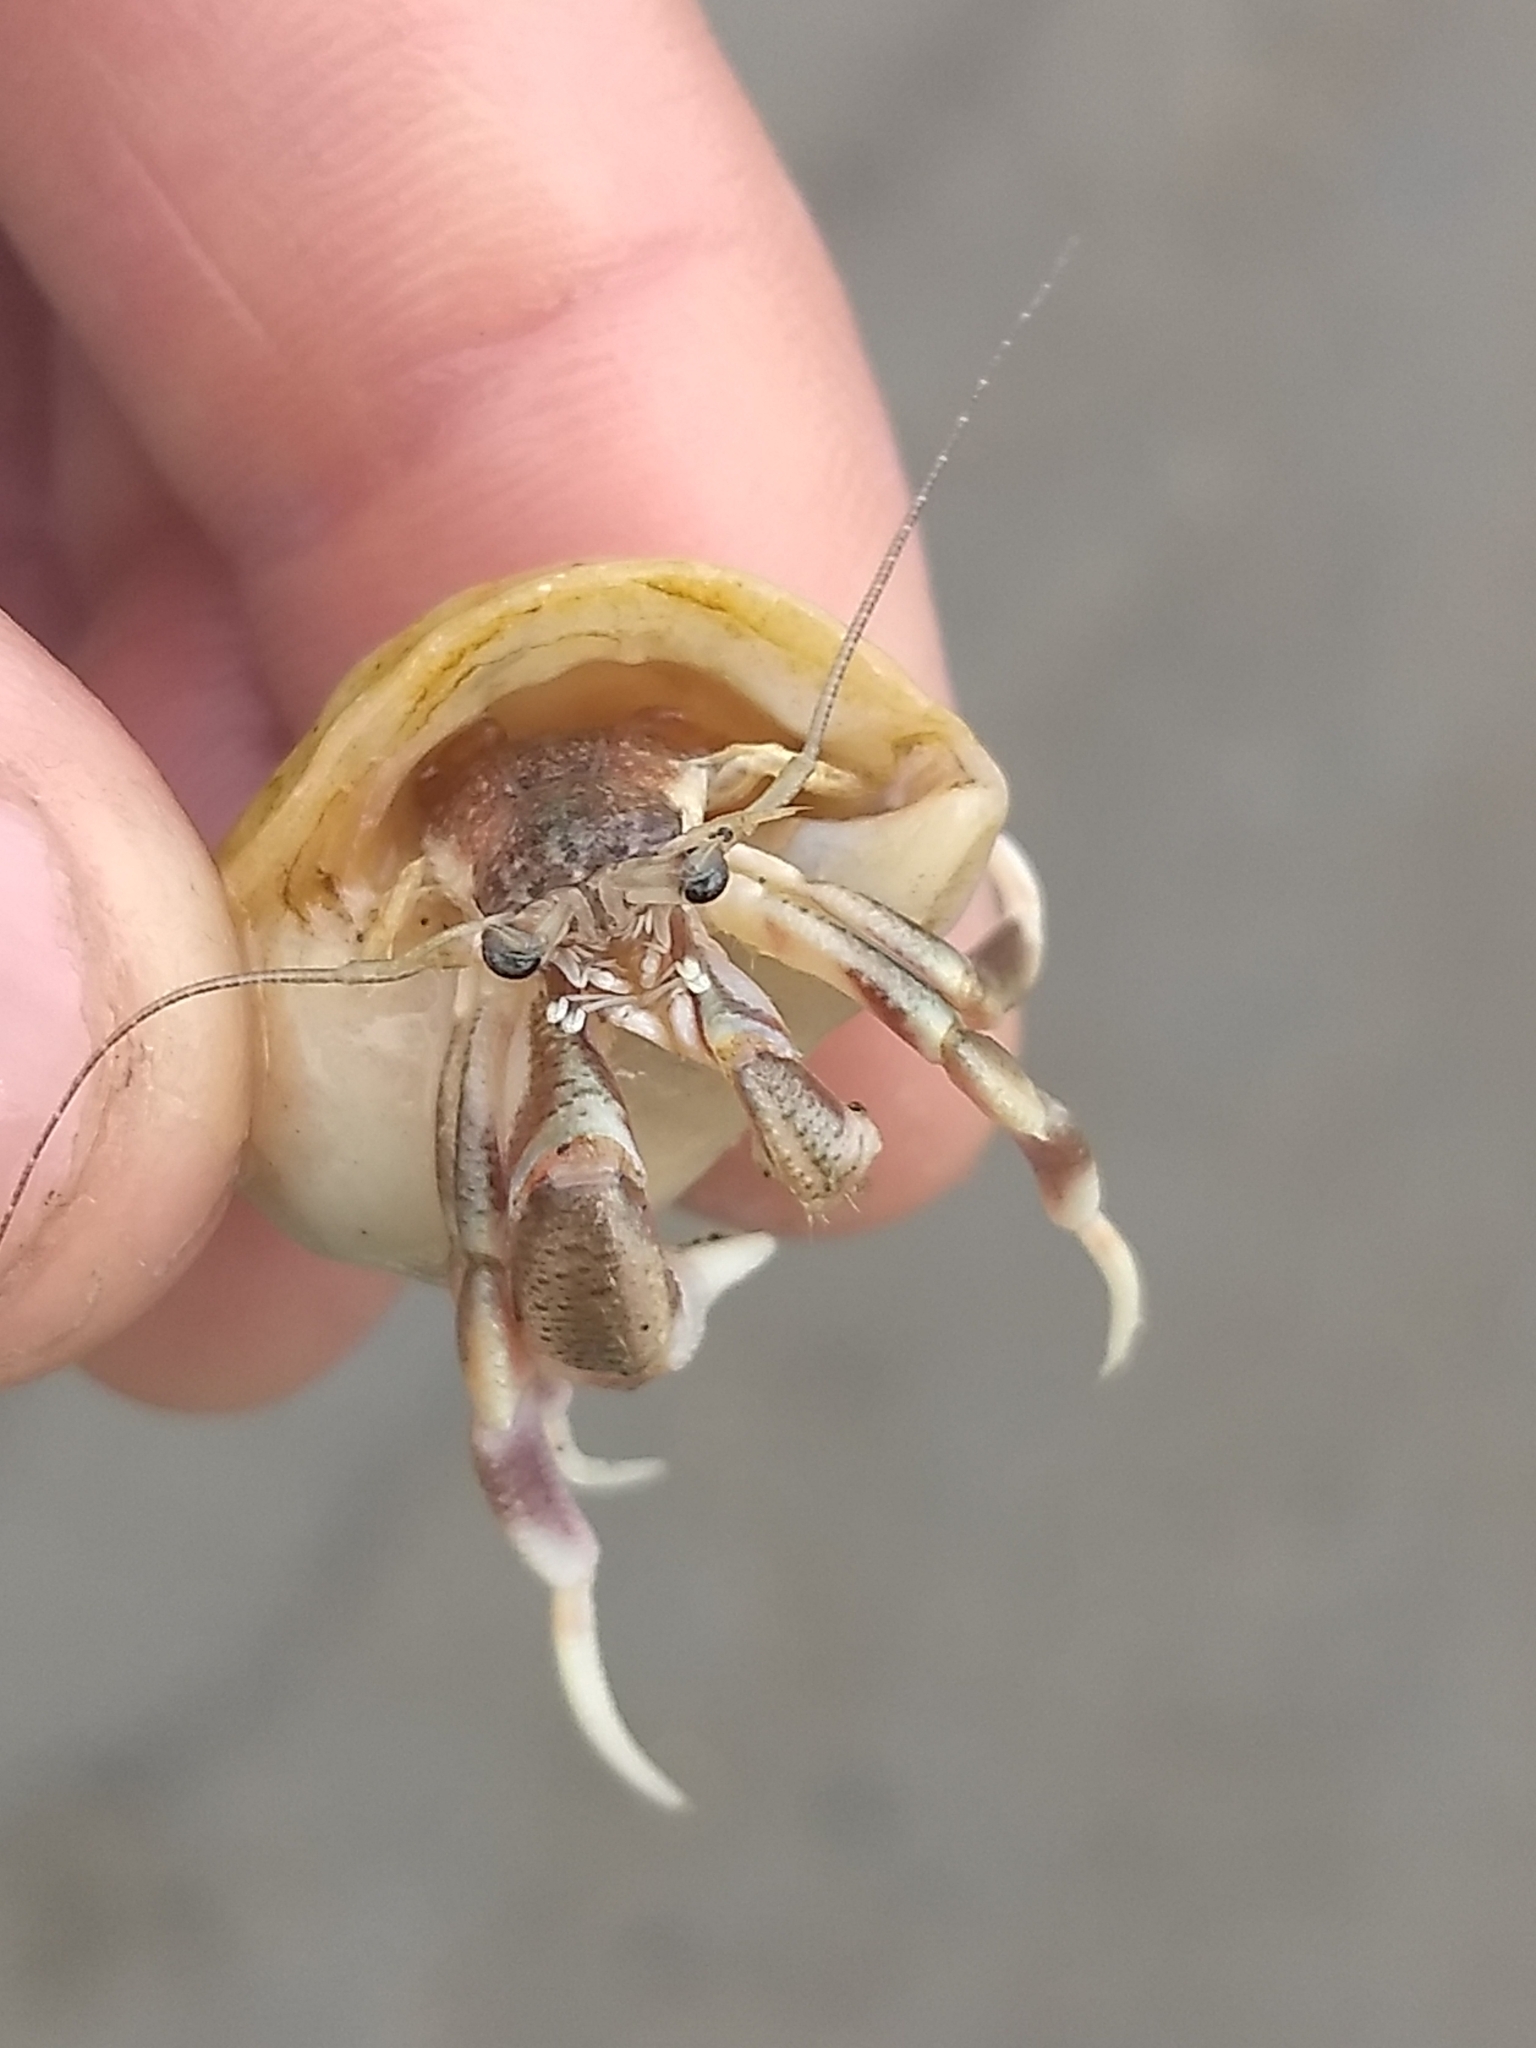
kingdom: Animalia
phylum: Arthropoda
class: Malacostraca
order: Decapoda
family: Paguridae
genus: Pagurus
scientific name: Pagurus longicarpus
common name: Long-armed hermit crab
